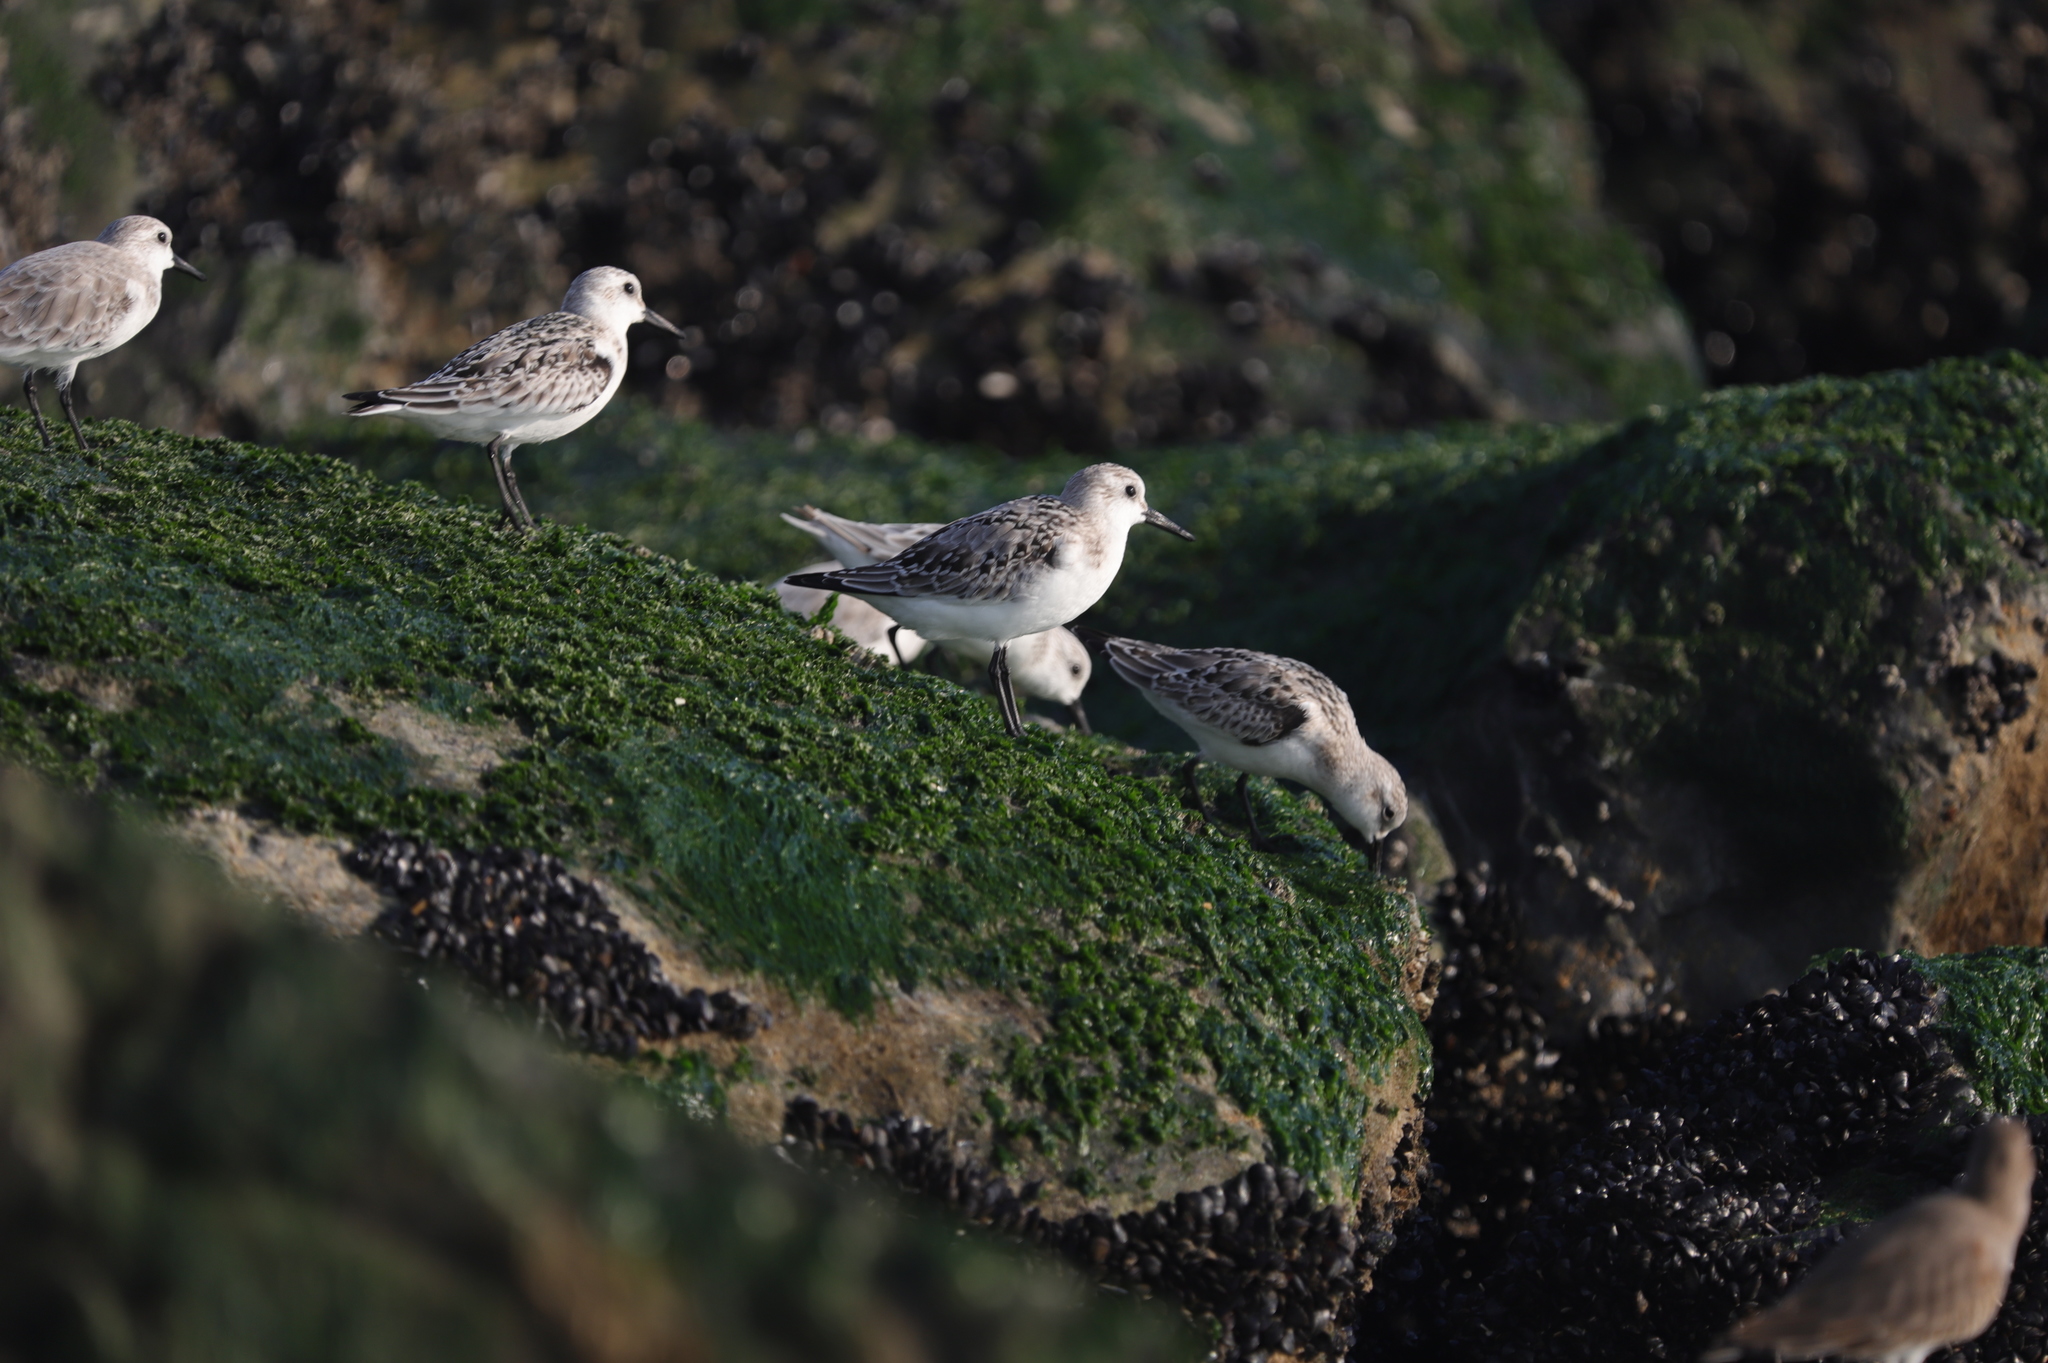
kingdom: Animalia
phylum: Chordata
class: Aves
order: Charadriiformes
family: Scolopacidae
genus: Calidris
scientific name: Calidris alba
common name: Sanderling
